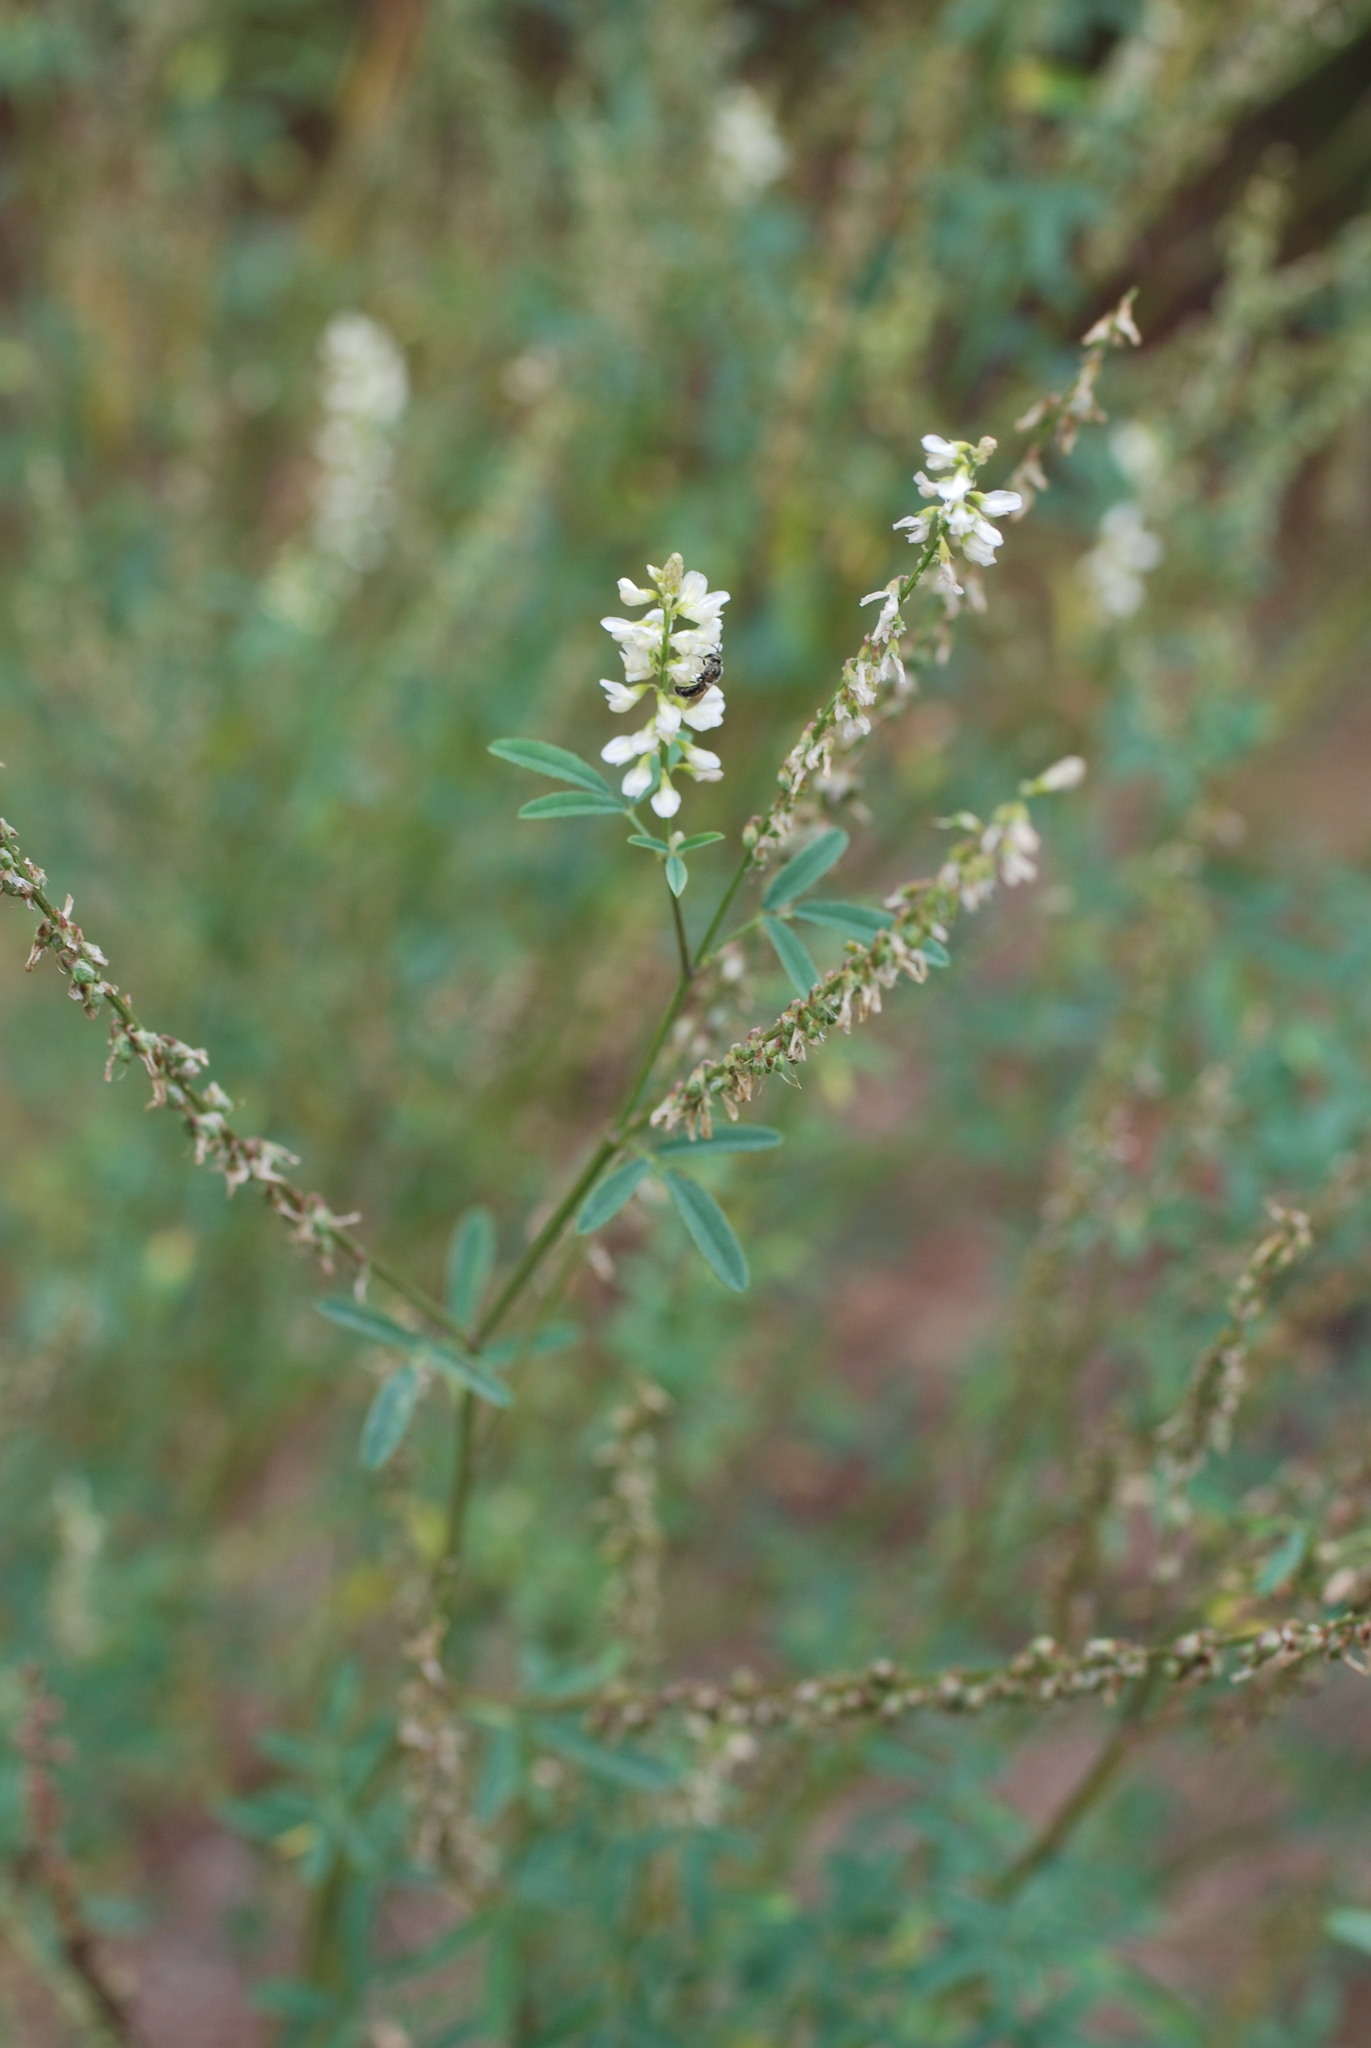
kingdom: Plantae
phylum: Tracheophyta
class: Magnoliopsida
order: Fabales
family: Fabaceae
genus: Melilotus
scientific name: Melilotus albus
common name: White melilot
